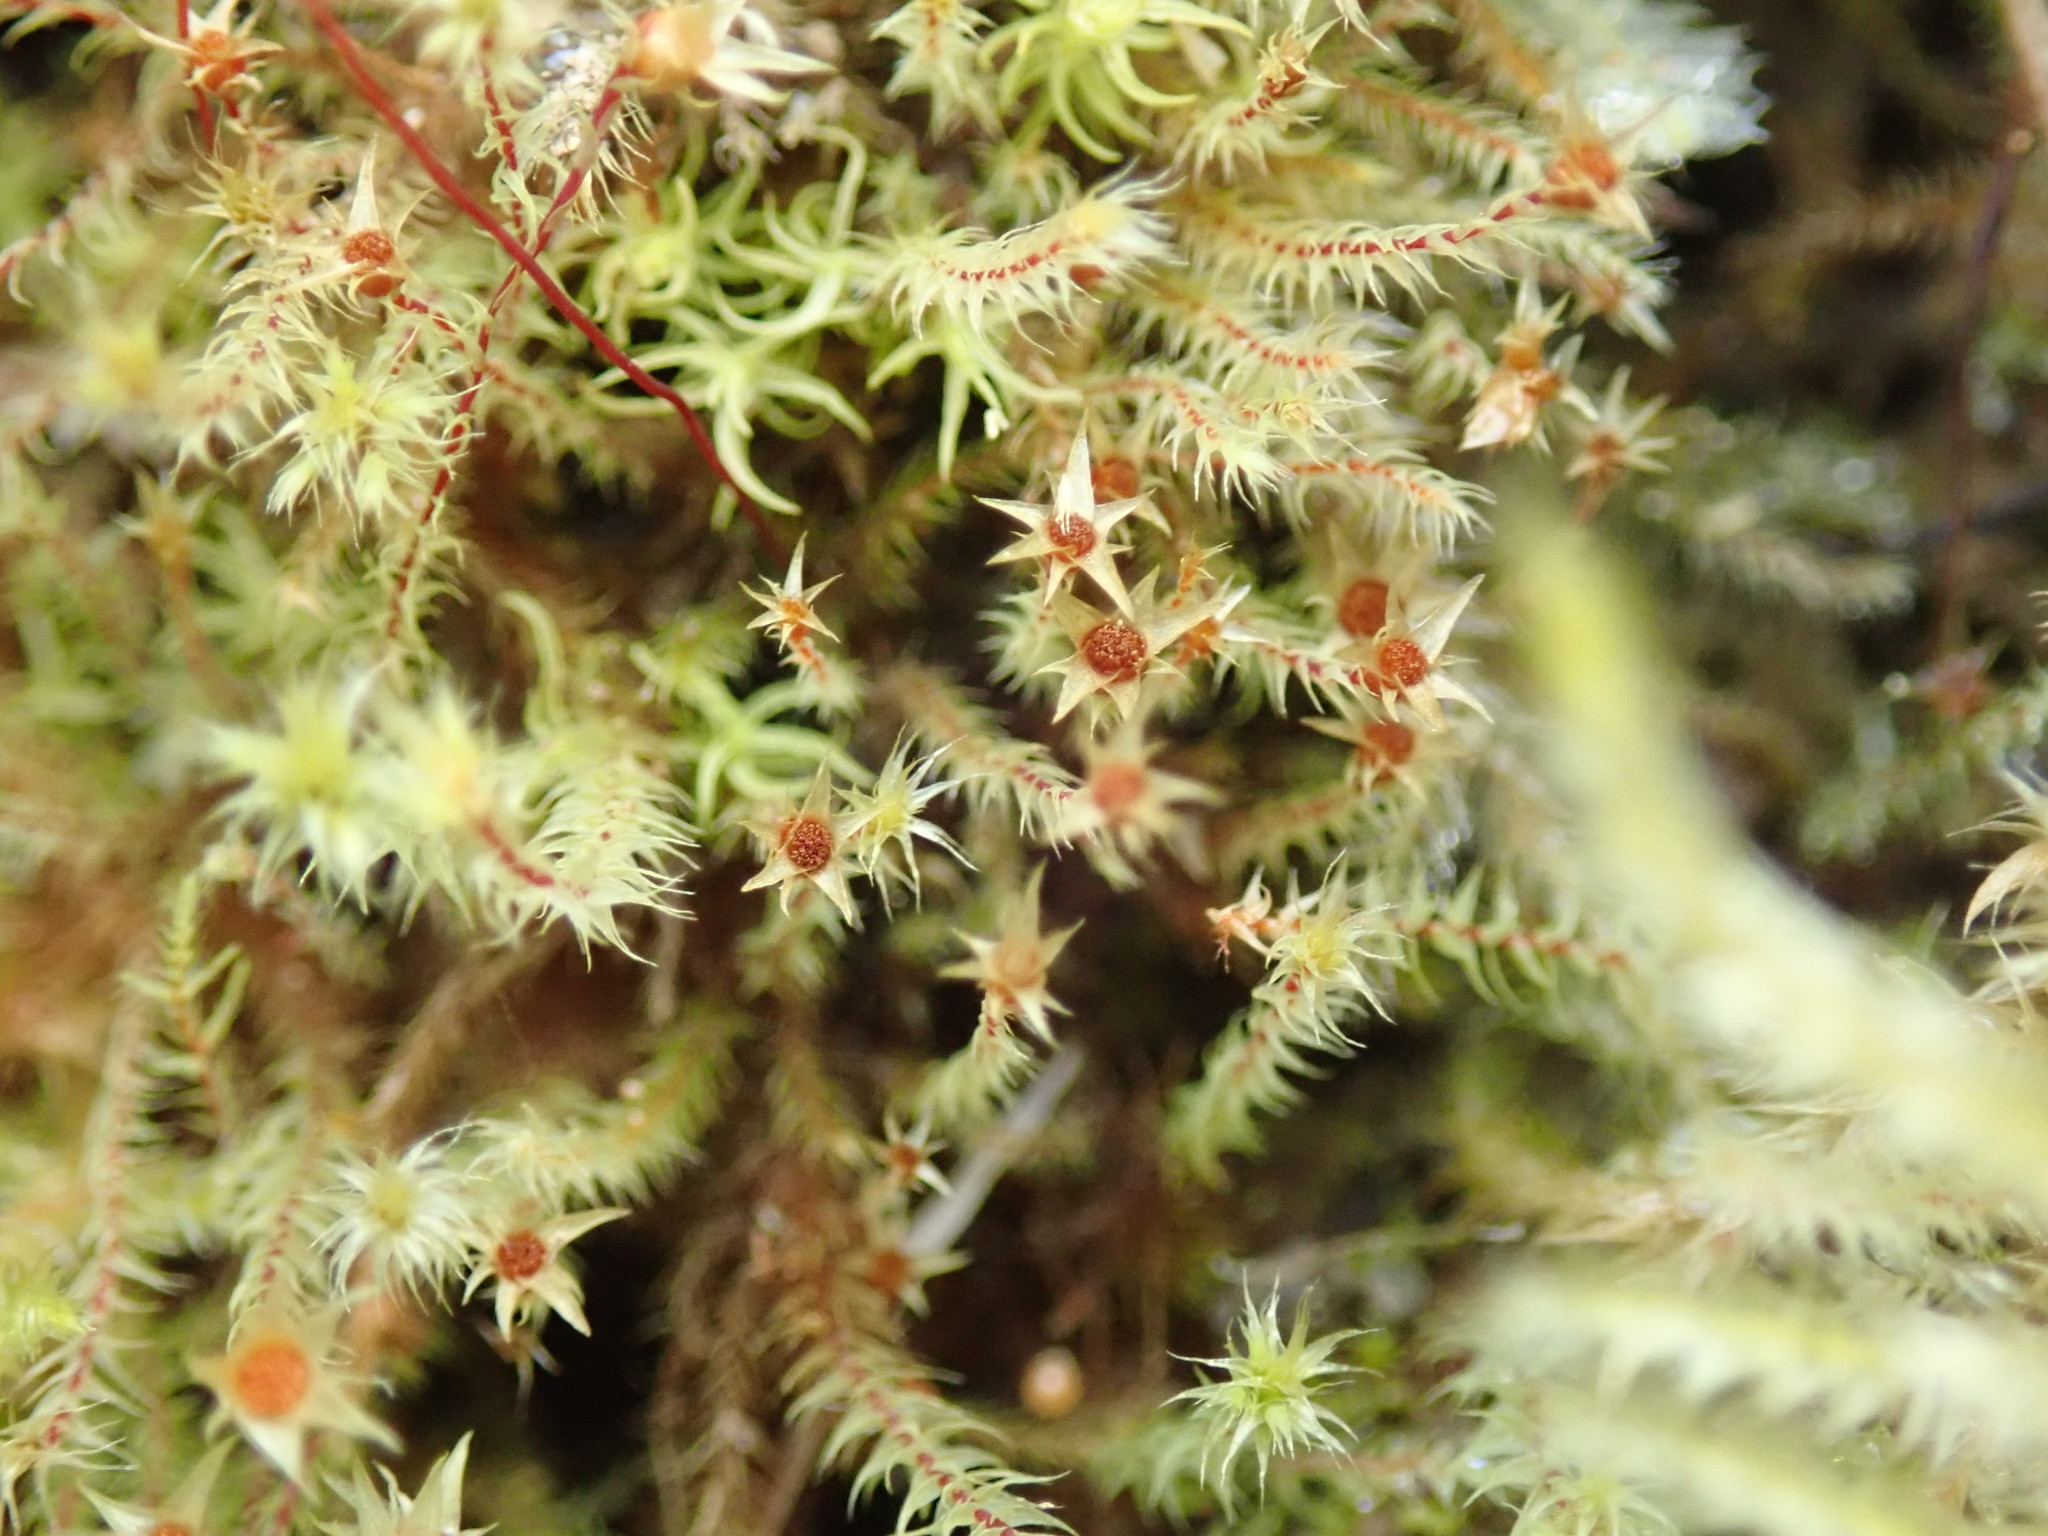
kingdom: Plantae
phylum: Bryophyta
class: Bryopsida
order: Bartramiales
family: Bartramiaceae
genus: Philonotis
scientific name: Philonotis fontana
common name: Fountain apple-moss
